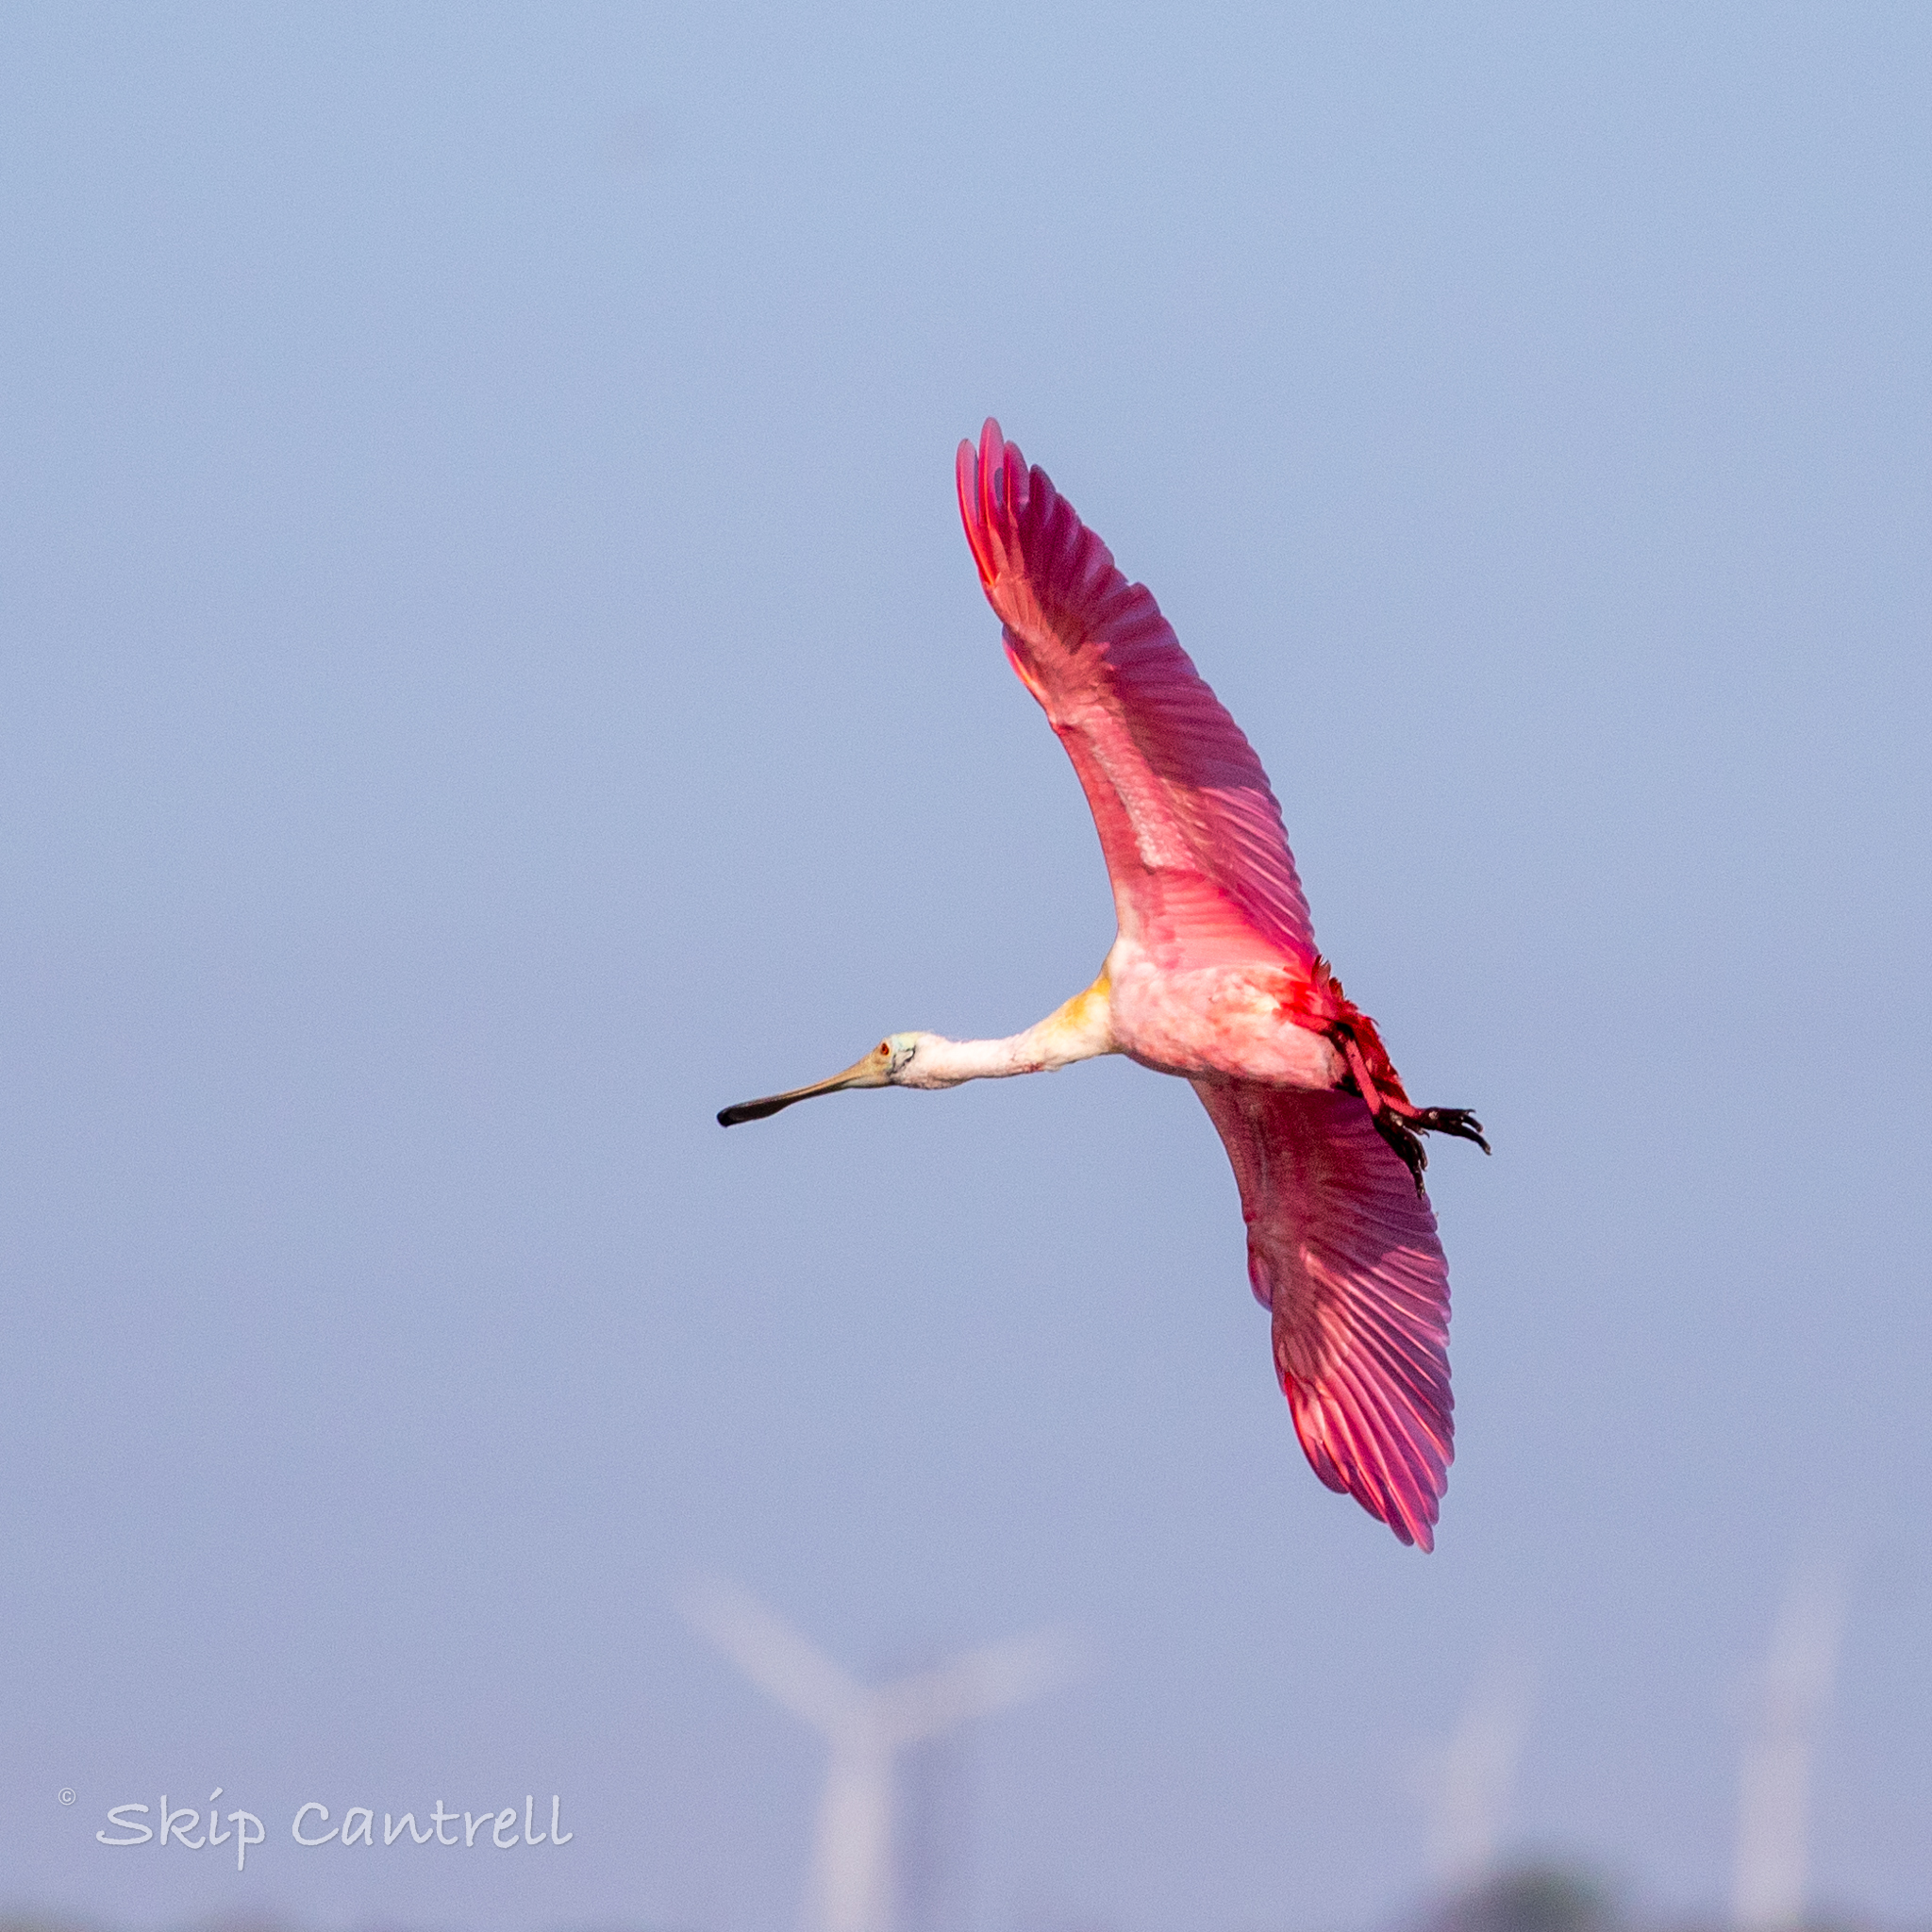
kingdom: Animalia
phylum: Chordata
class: Aves
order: Pelecaniformes
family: Threskiornithidae
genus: Platalea
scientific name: Platalea ajaja
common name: Roseate spoonbill
